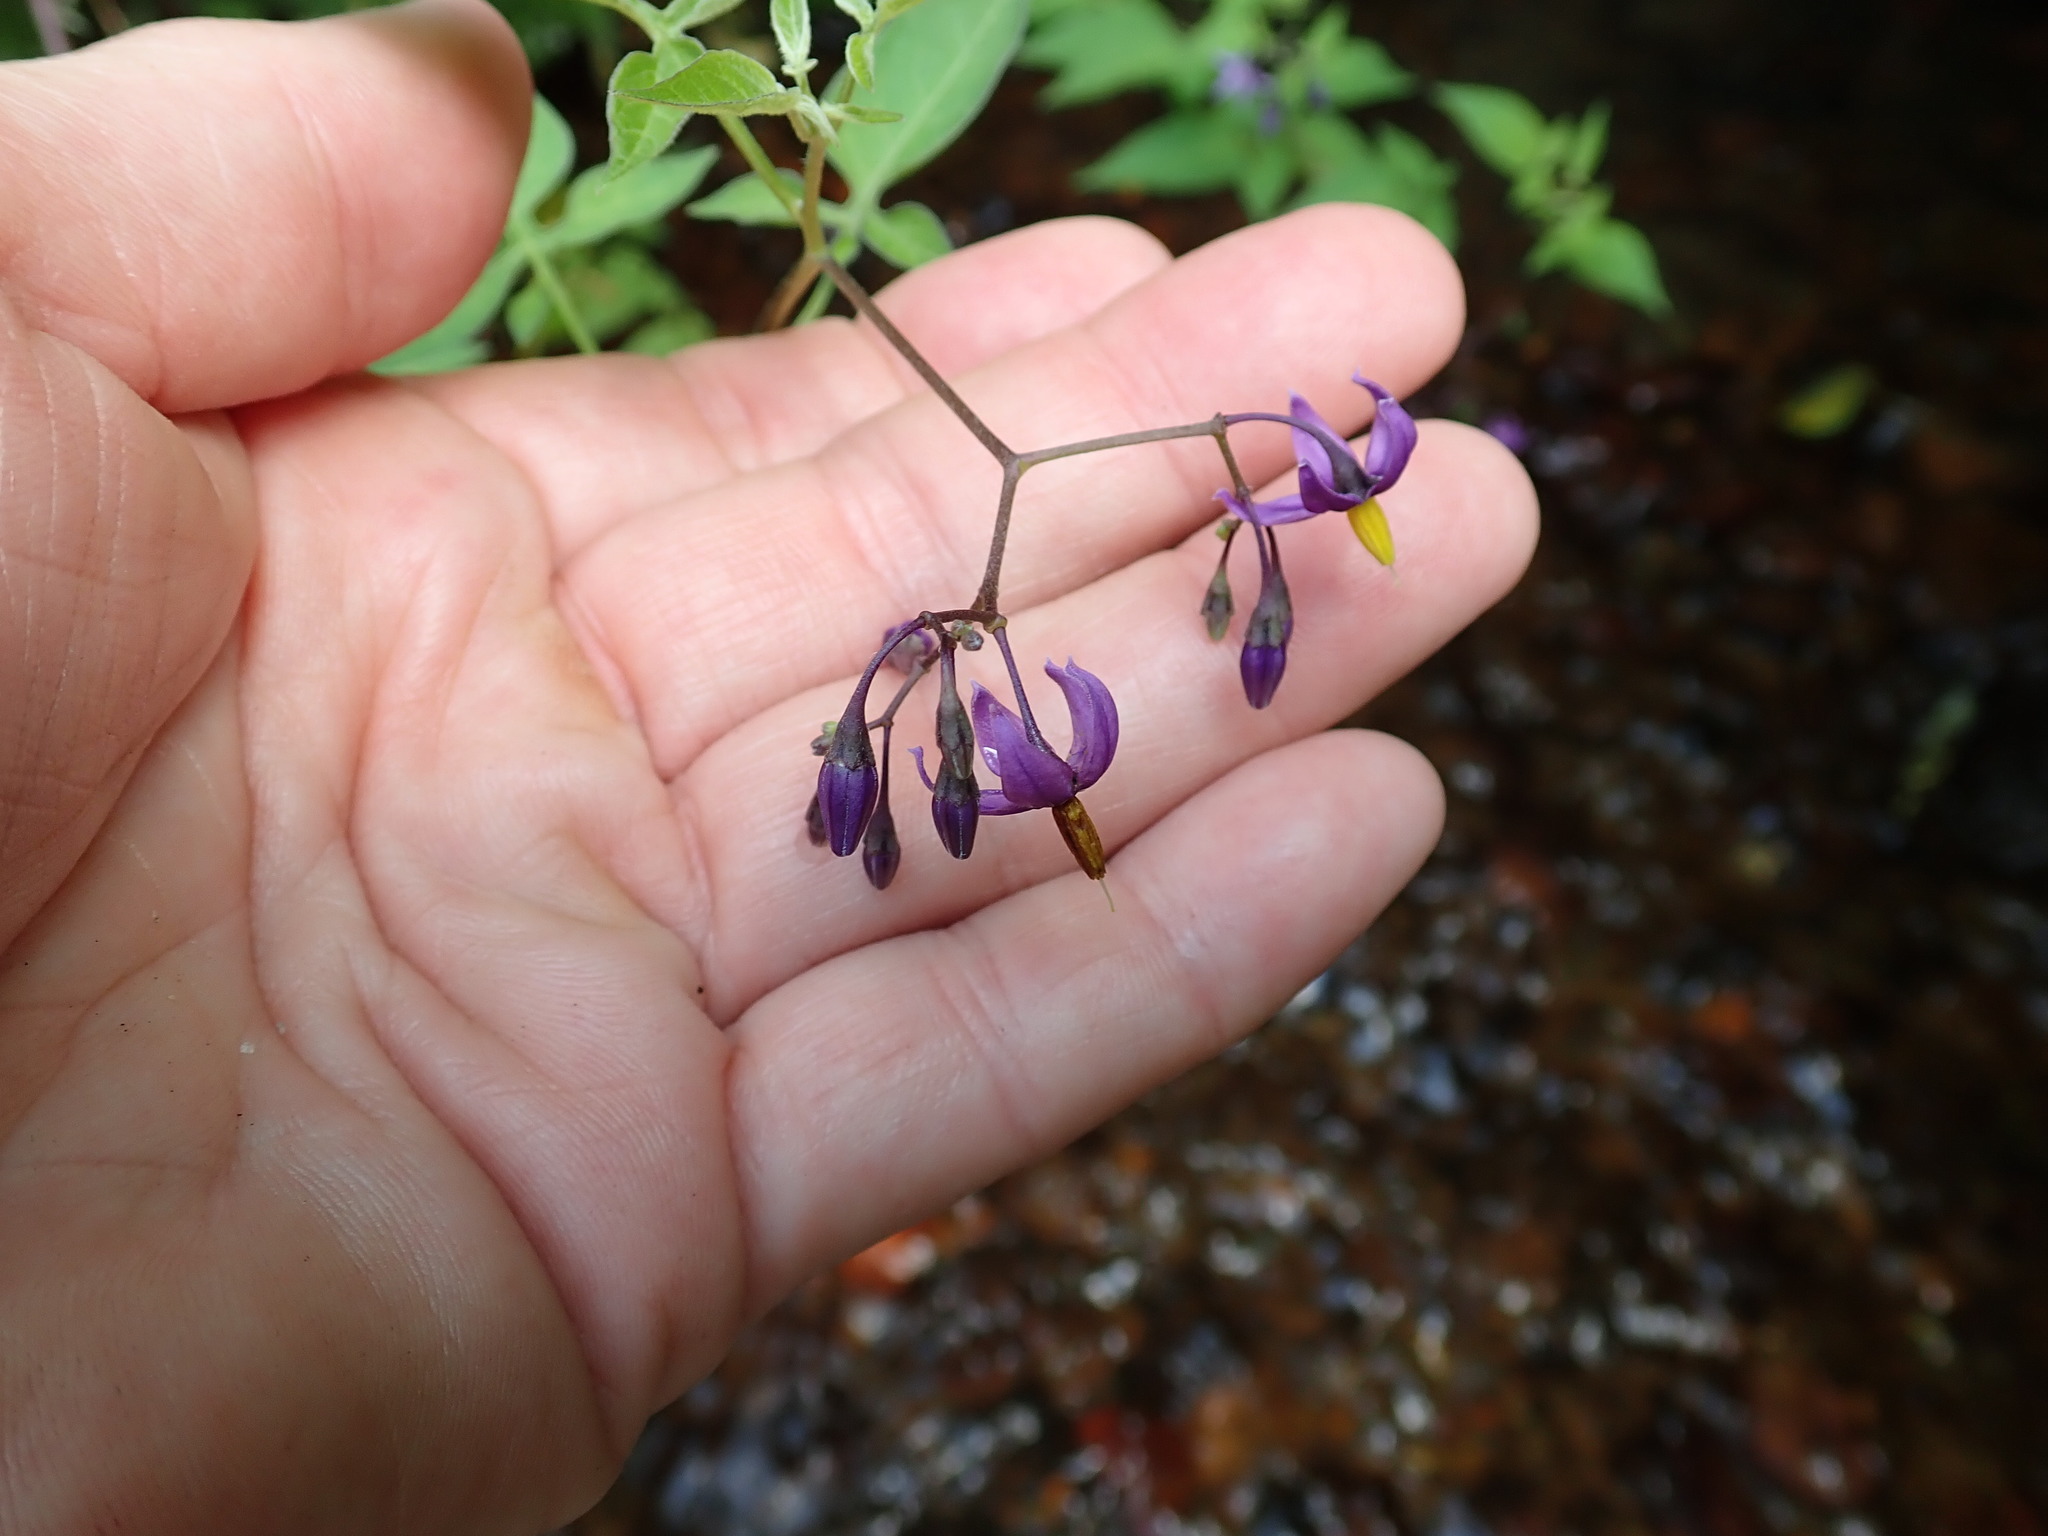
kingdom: Plantae
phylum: Tracheophyta
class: Magnoliopsida
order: Solanales
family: Solanaceae
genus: Solanum
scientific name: Solanum dulcamara
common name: Climbing nightshade
